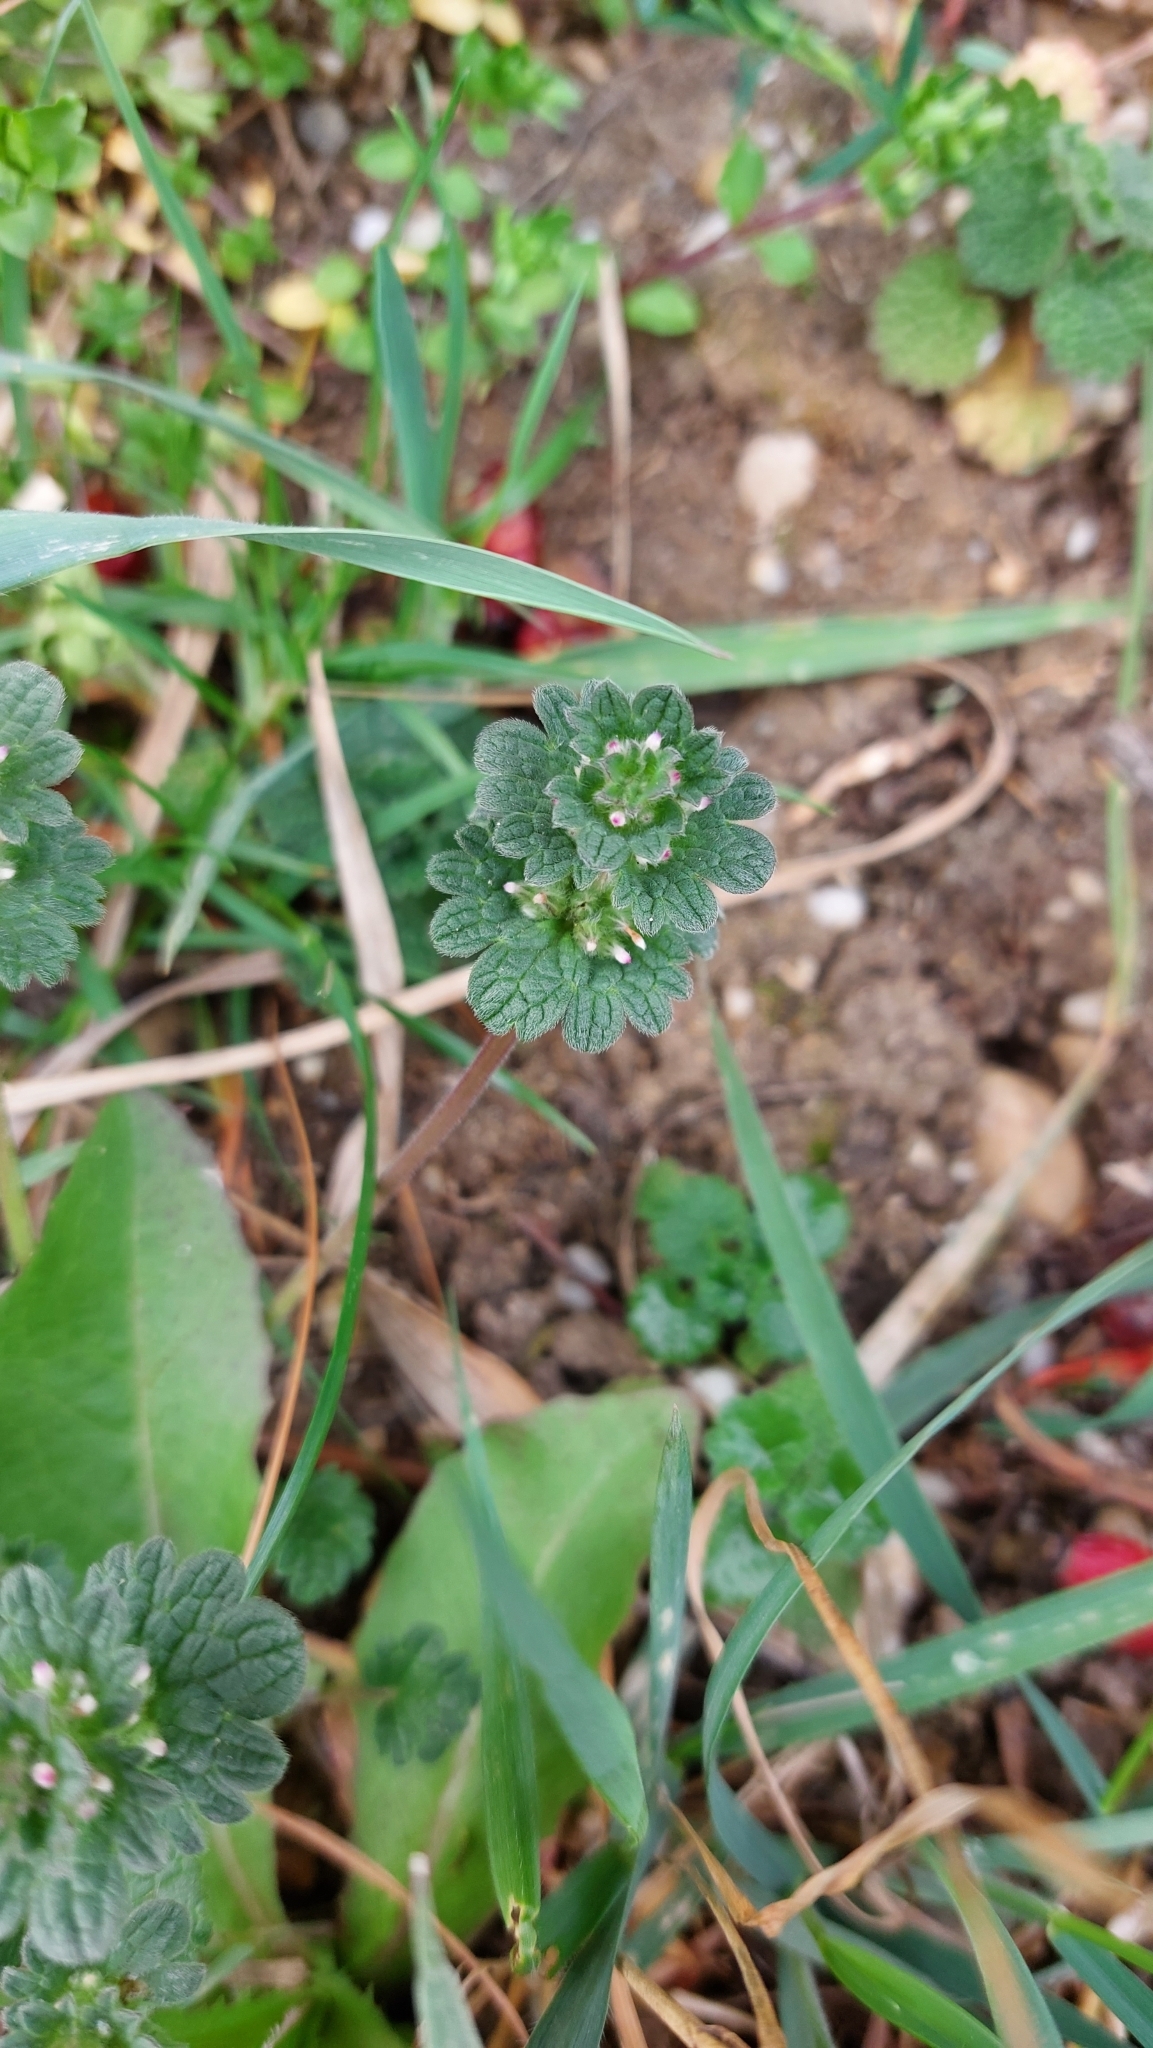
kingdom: Plantae
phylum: Tracheophyta
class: Magnoliopsida
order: Lamiales
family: Lamiaceae
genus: Lamium
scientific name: Lamium amplexicaule
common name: Henbit dead-nettle
